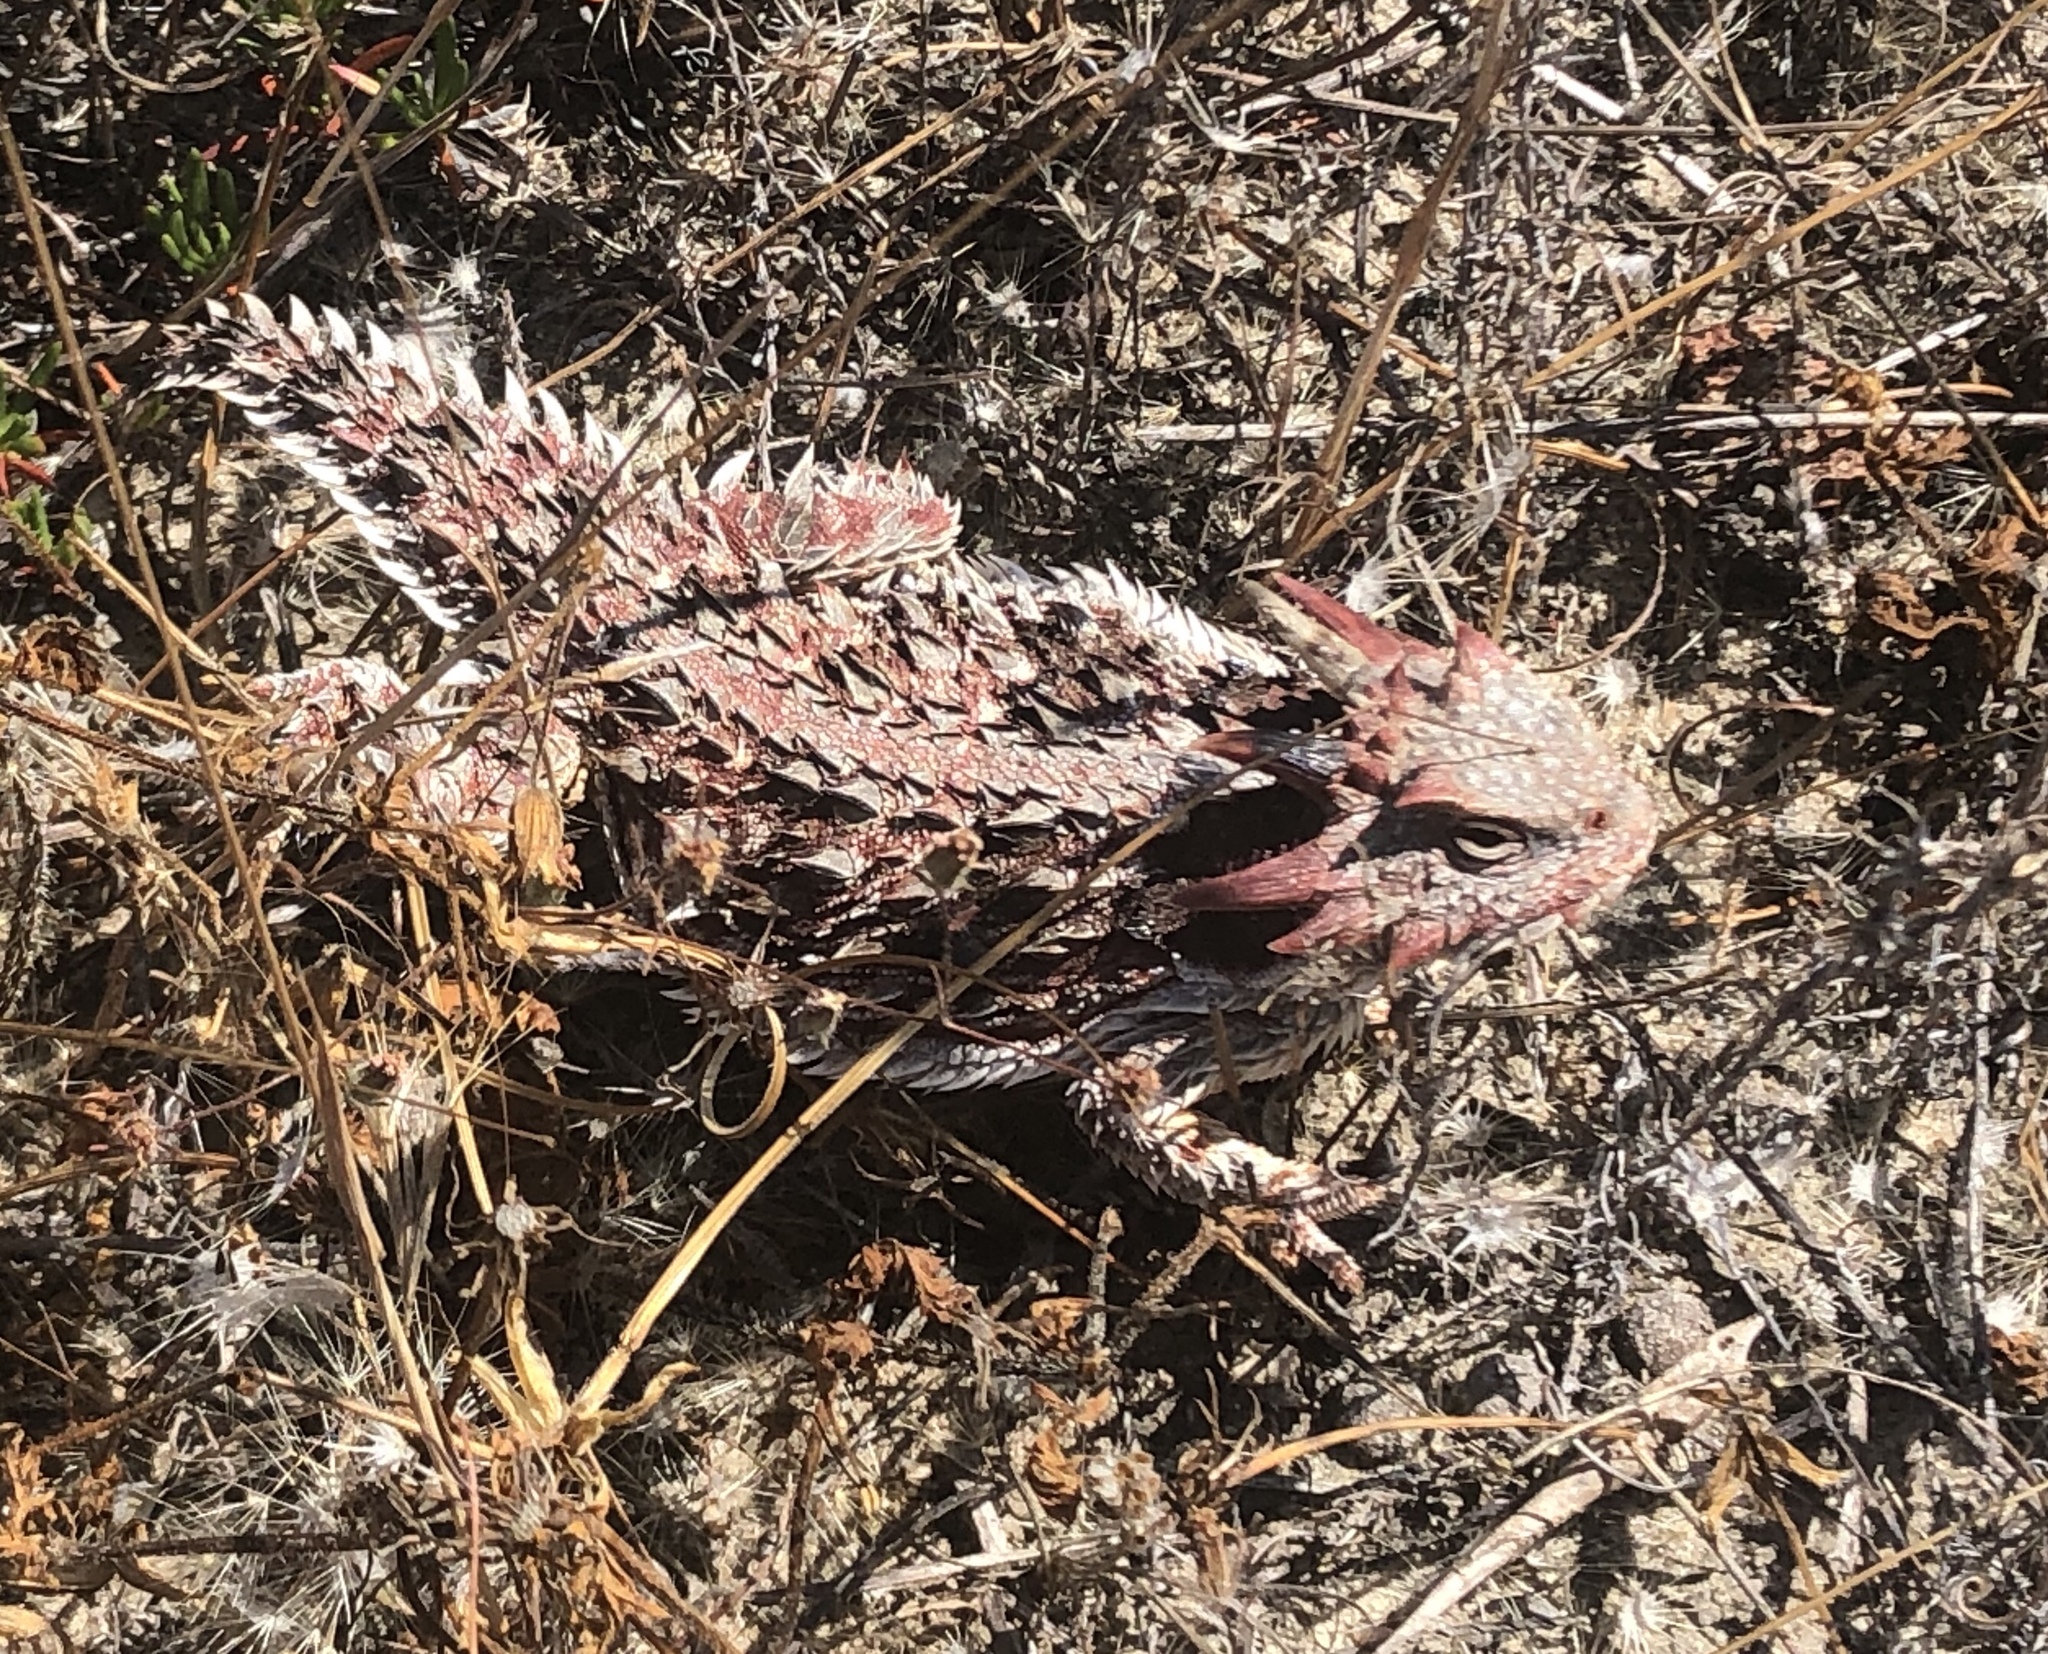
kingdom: Animalia
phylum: Chordata
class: Squamata
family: Phrynosomatidae
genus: Phrynosoma
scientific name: Phrynosoma blainvillii
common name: San diego horned lizard
